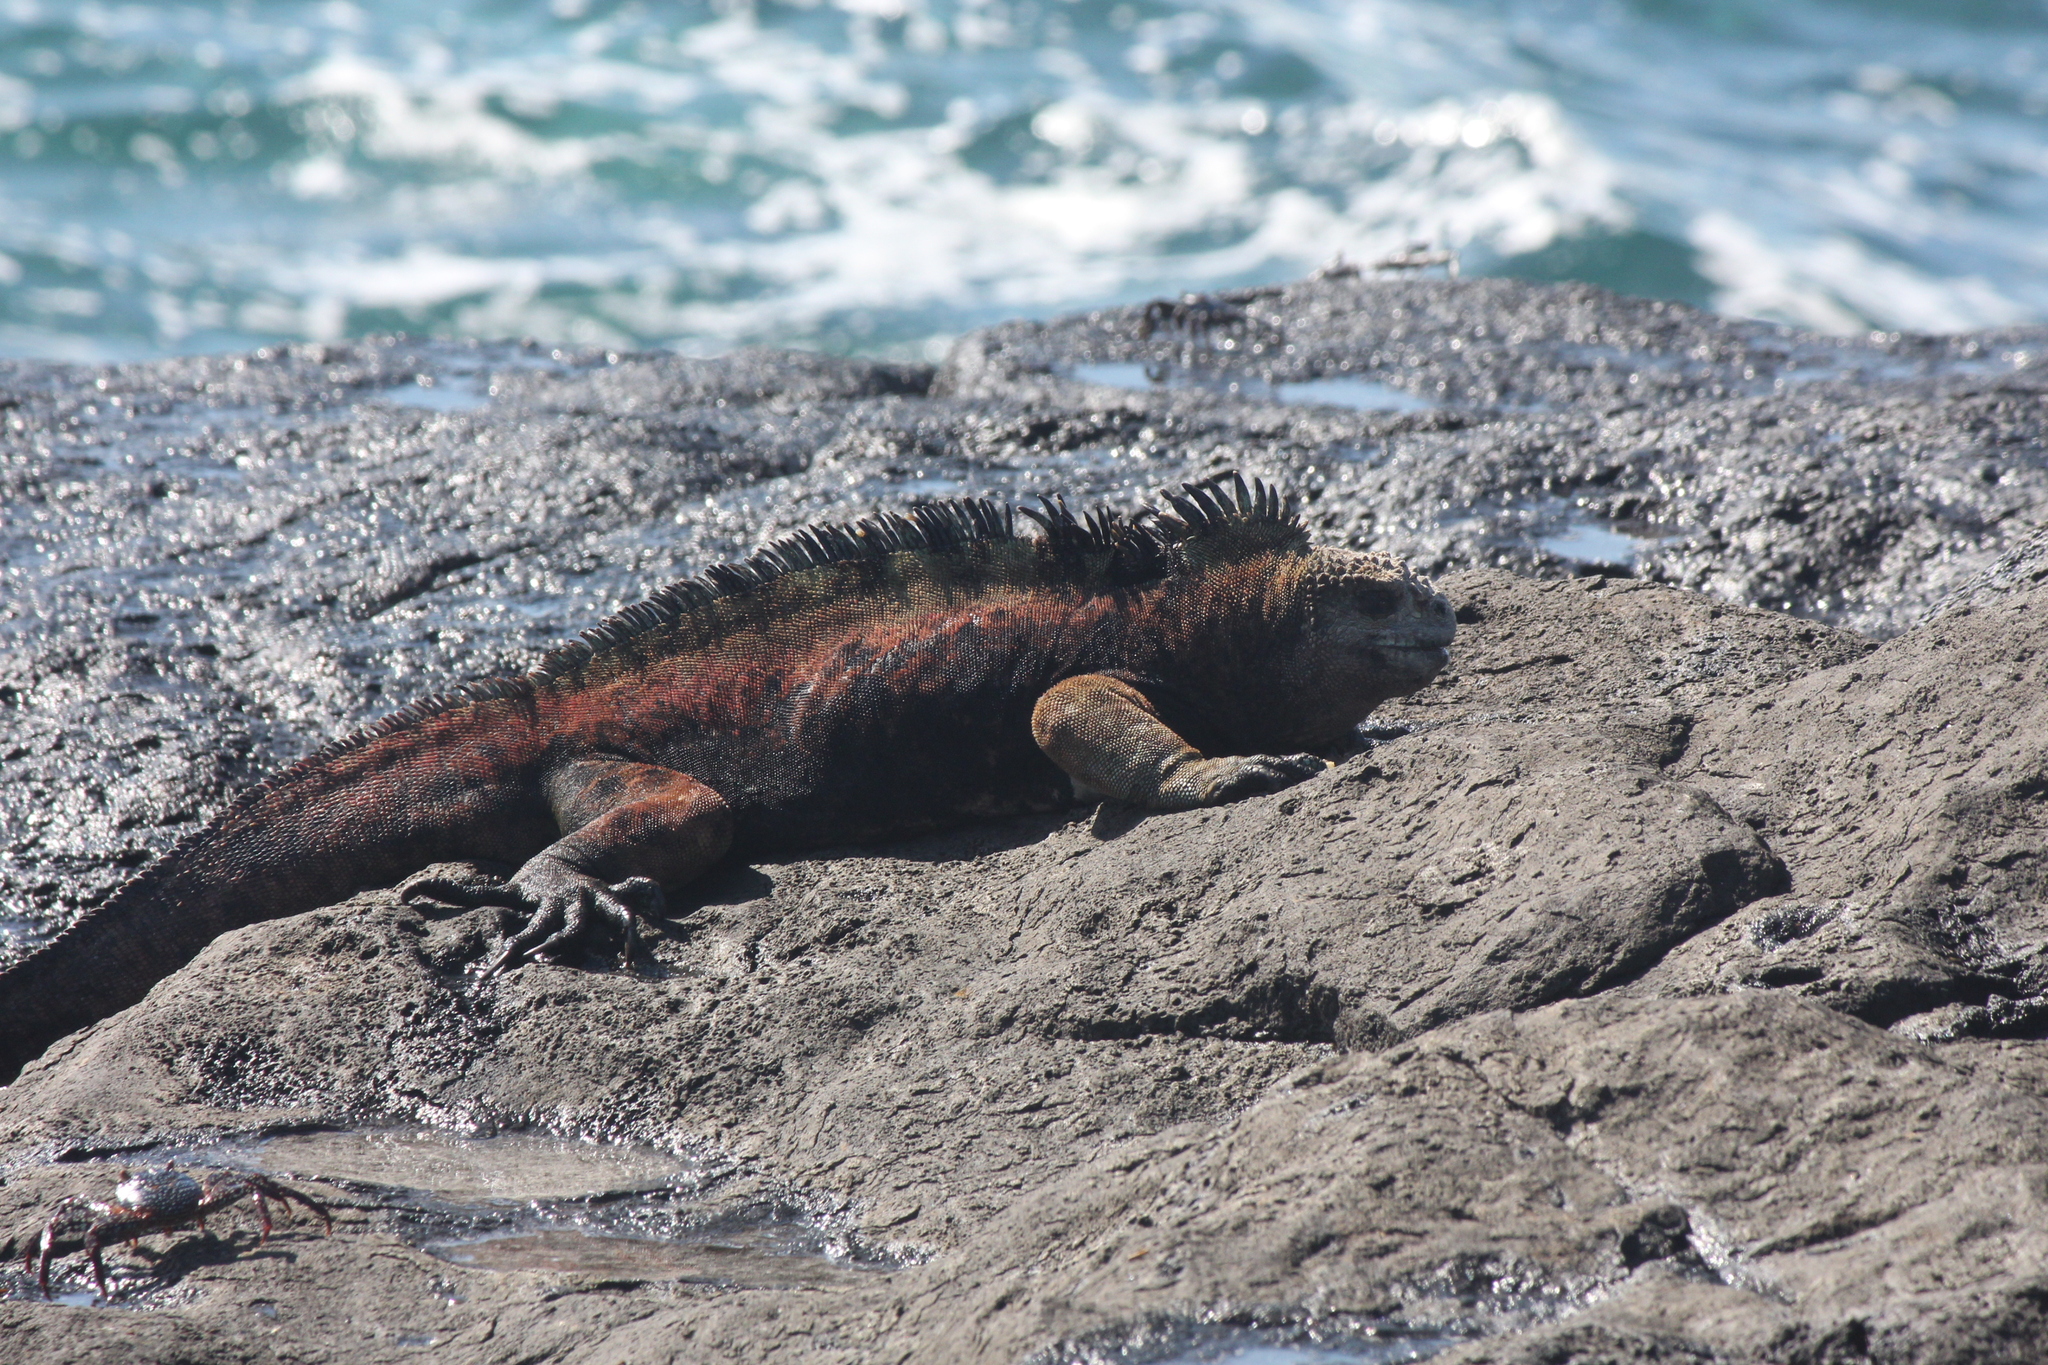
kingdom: Animalia
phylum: Chordata
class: Squamata
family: Iguanidae
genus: Amblyrhynchus
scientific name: Amblyrhynchus cristatus
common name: Marine iguana
